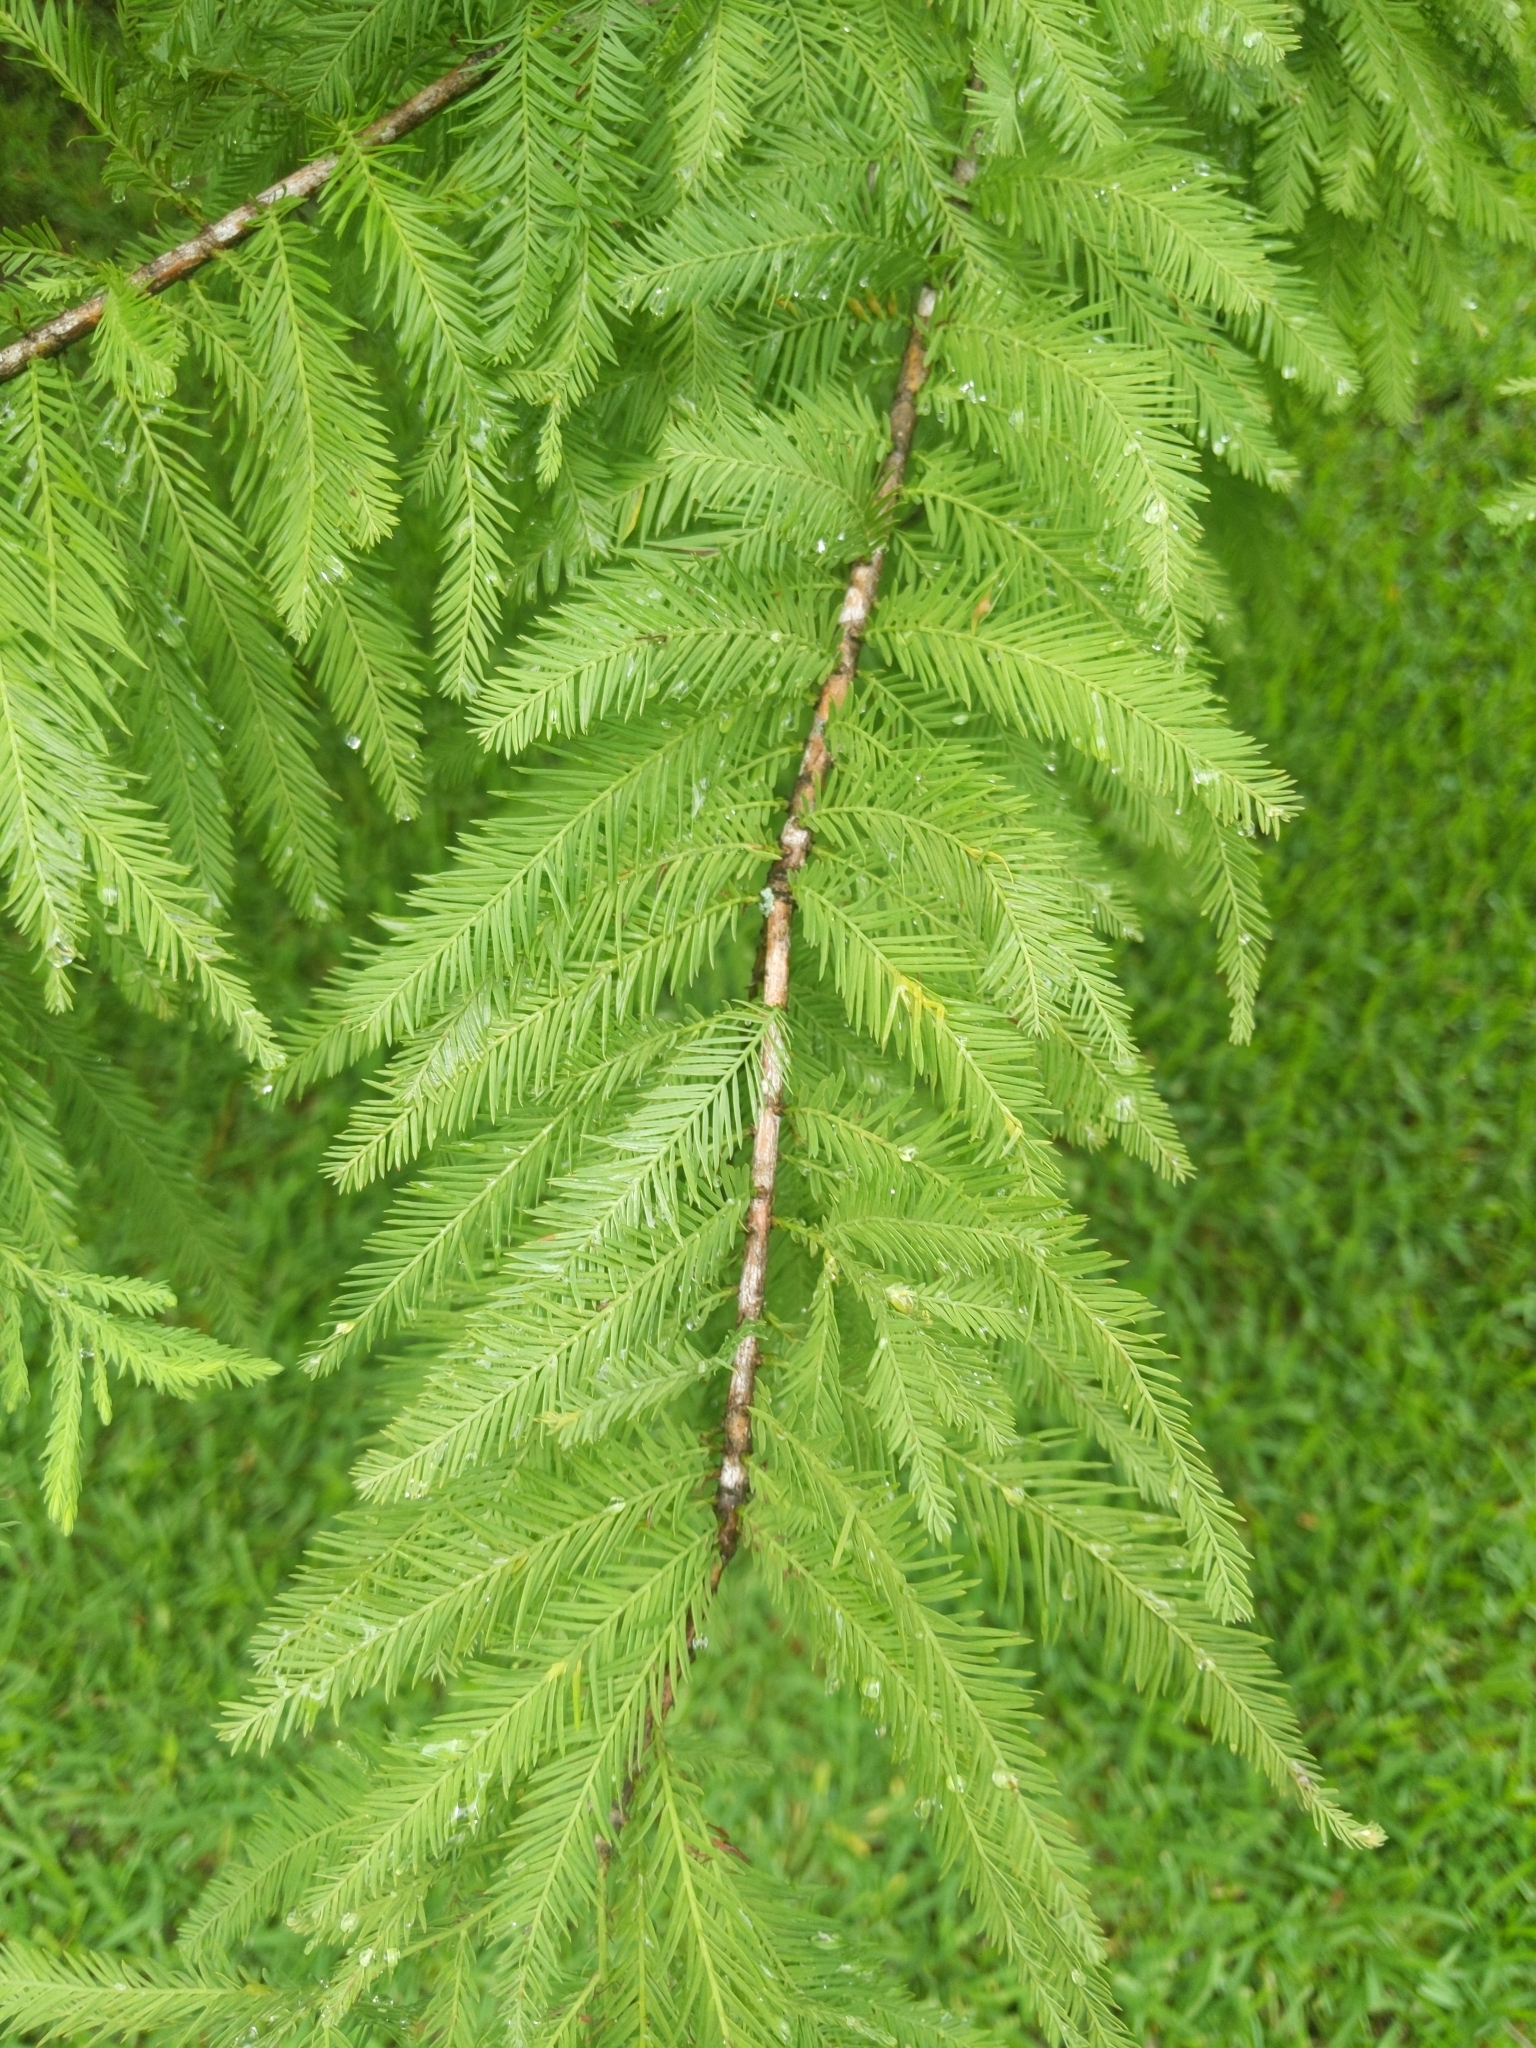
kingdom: Plantae
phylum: Tracheophyta
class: Pinopsida
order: Pinales
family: Cupressaceae
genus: Taxodium
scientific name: Taxodium distichum
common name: Bald cypress
